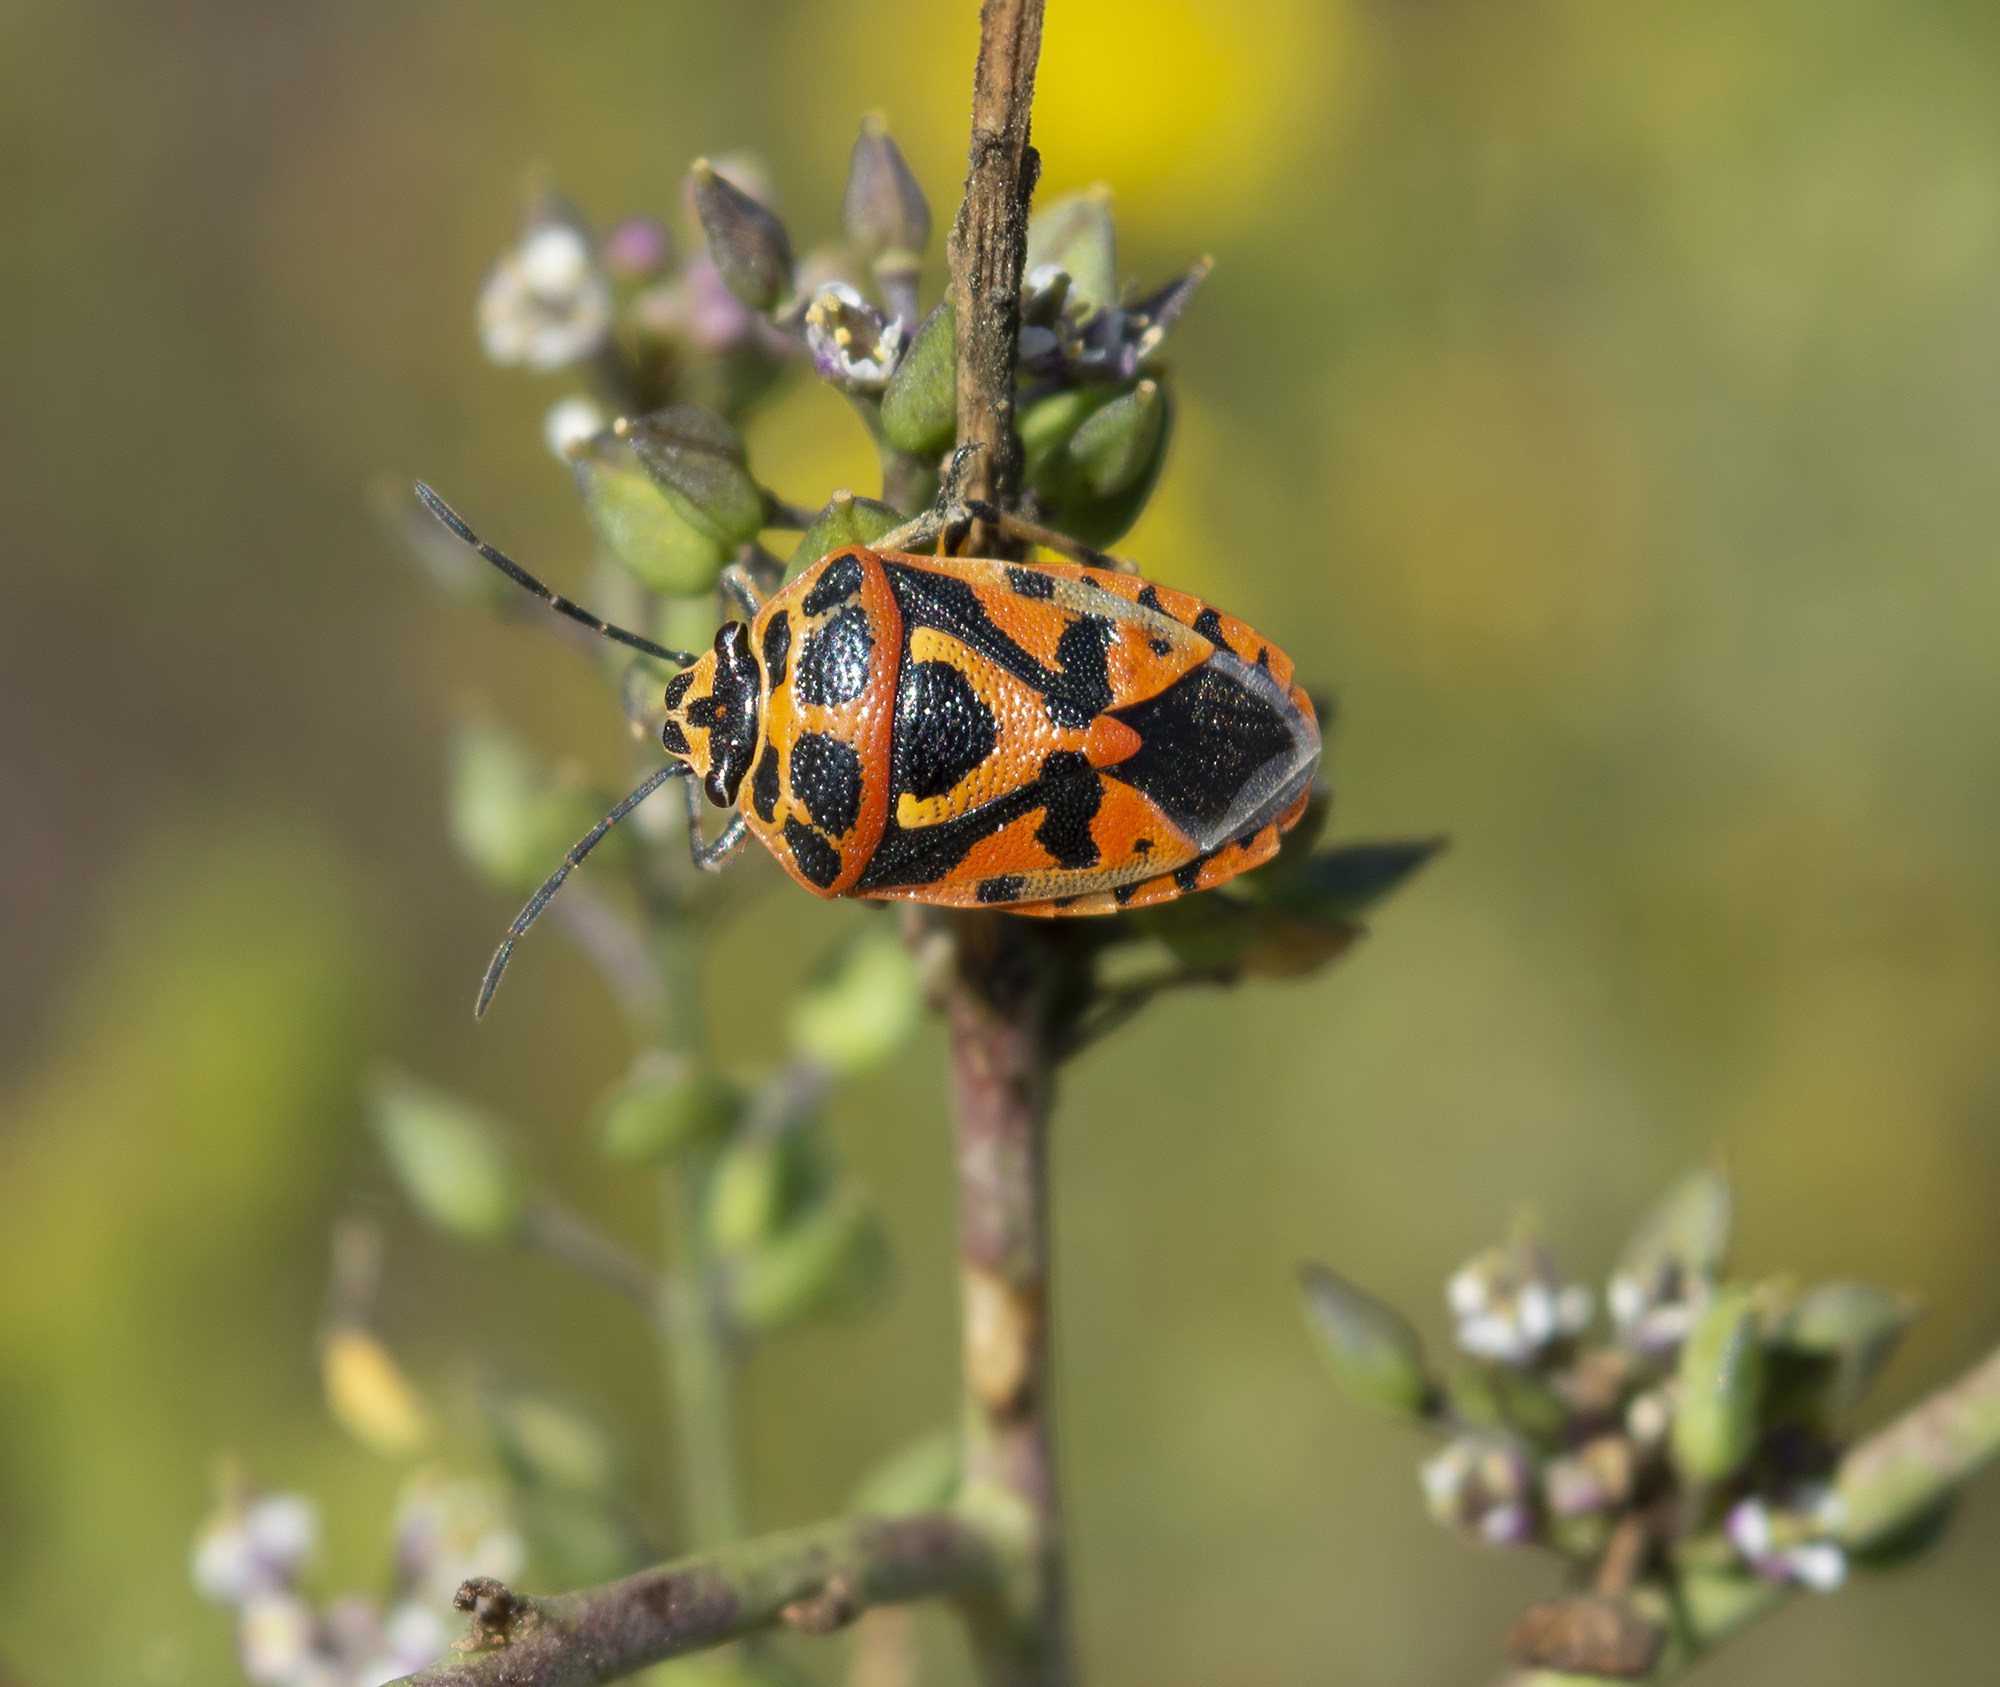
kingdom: Animalia
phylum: Arthropoda
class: Insecta
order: Hemiptera
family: Pentatomidae
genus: Eurydema
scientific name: Eurydema ornata
